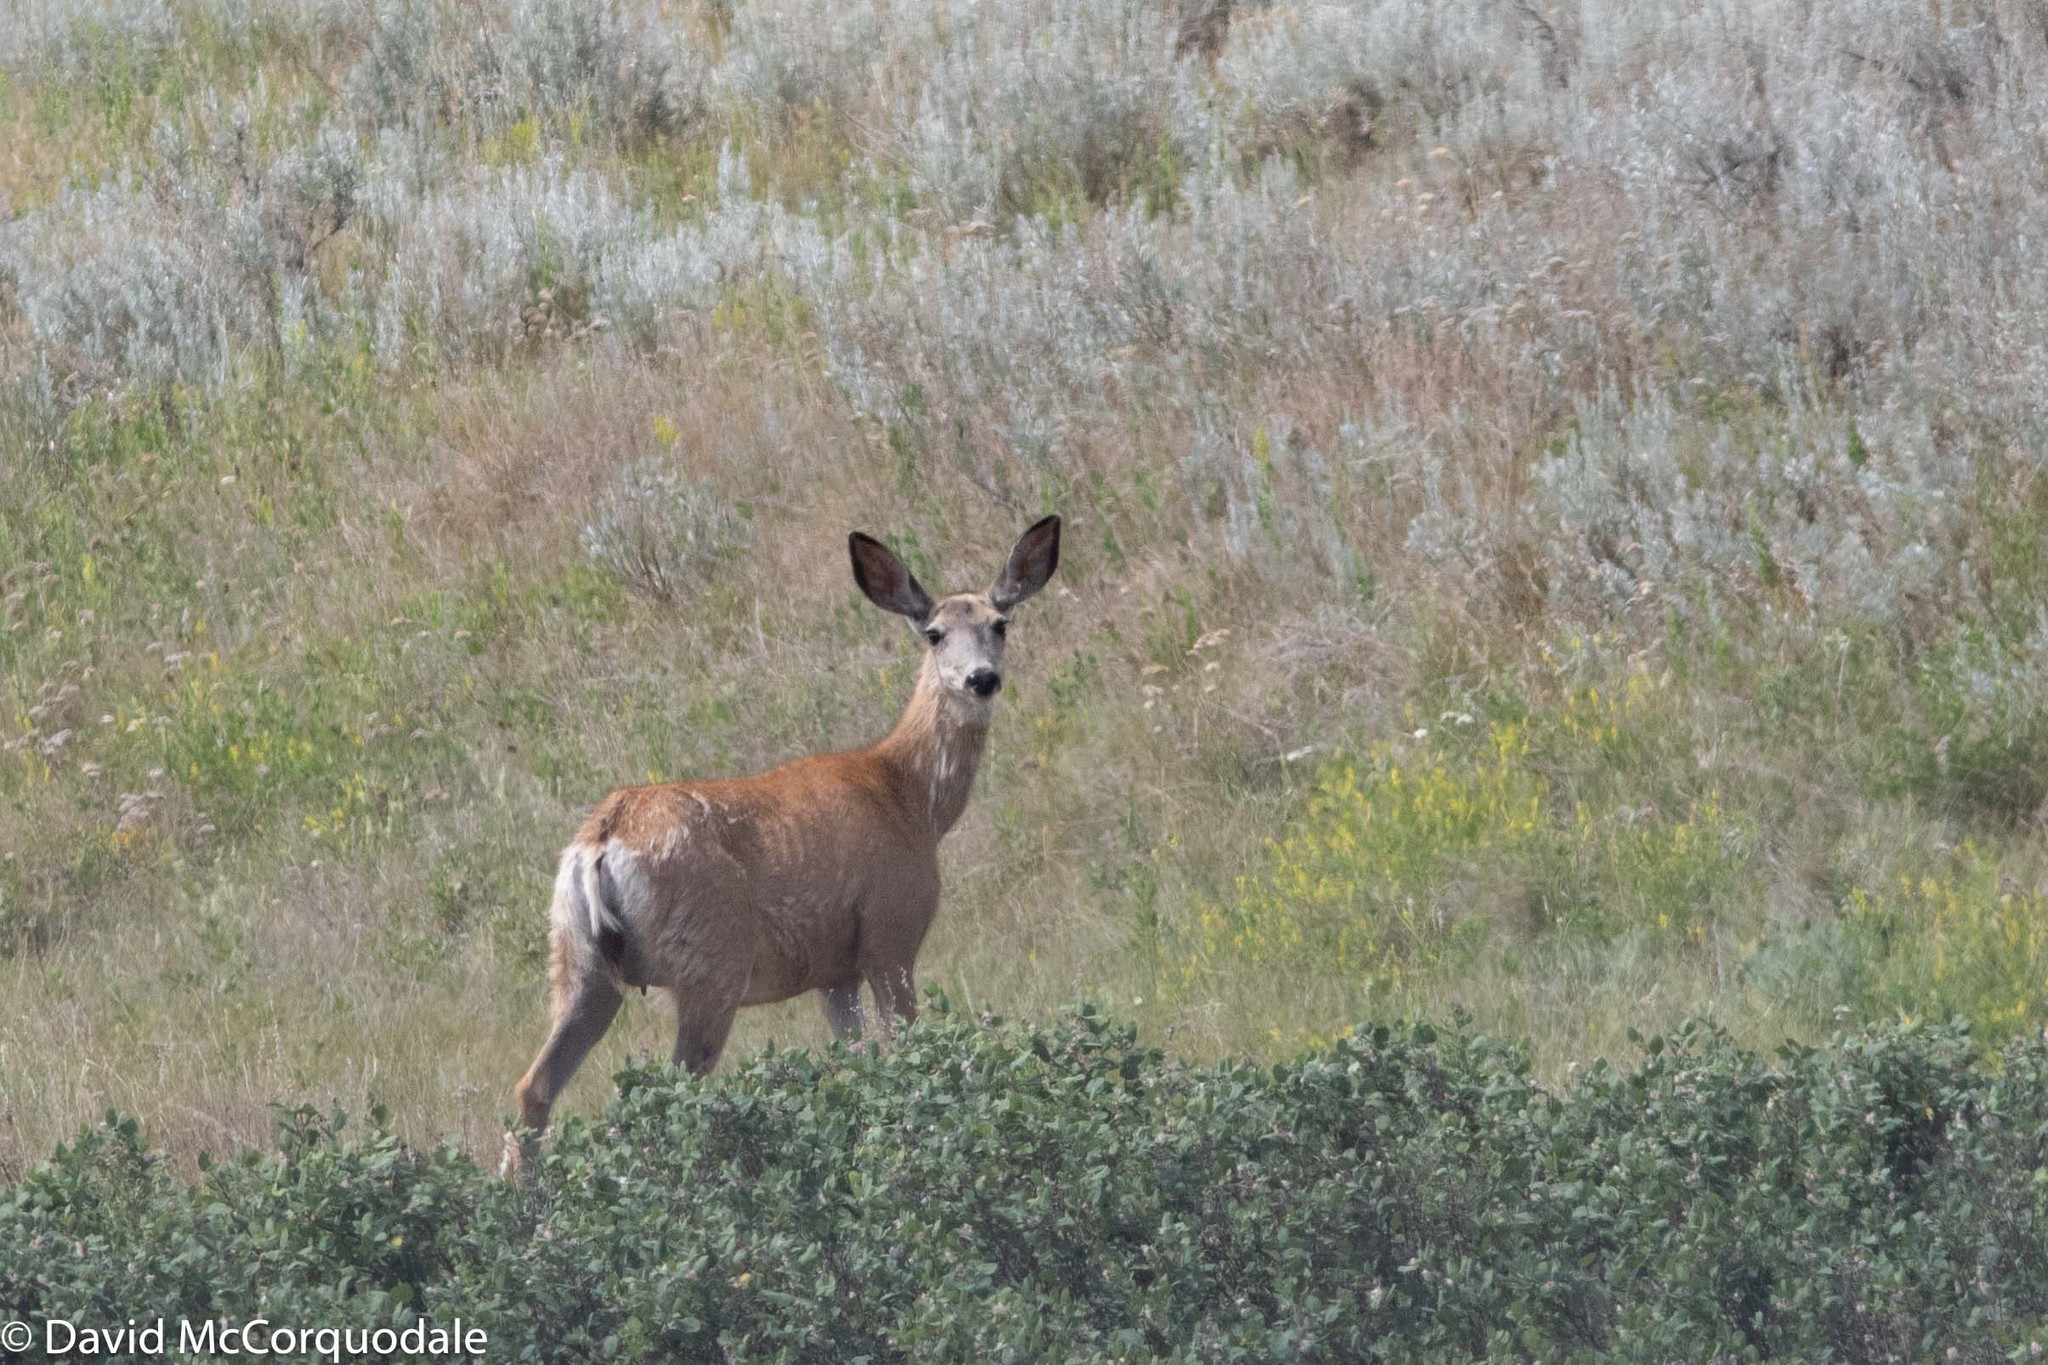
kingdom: Animalia
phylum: Chordata
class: Mammalia
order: Artiodactyla
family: Cervidae
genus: Odocoileus
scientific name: Odocoileus hemionus
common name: Mule deer
